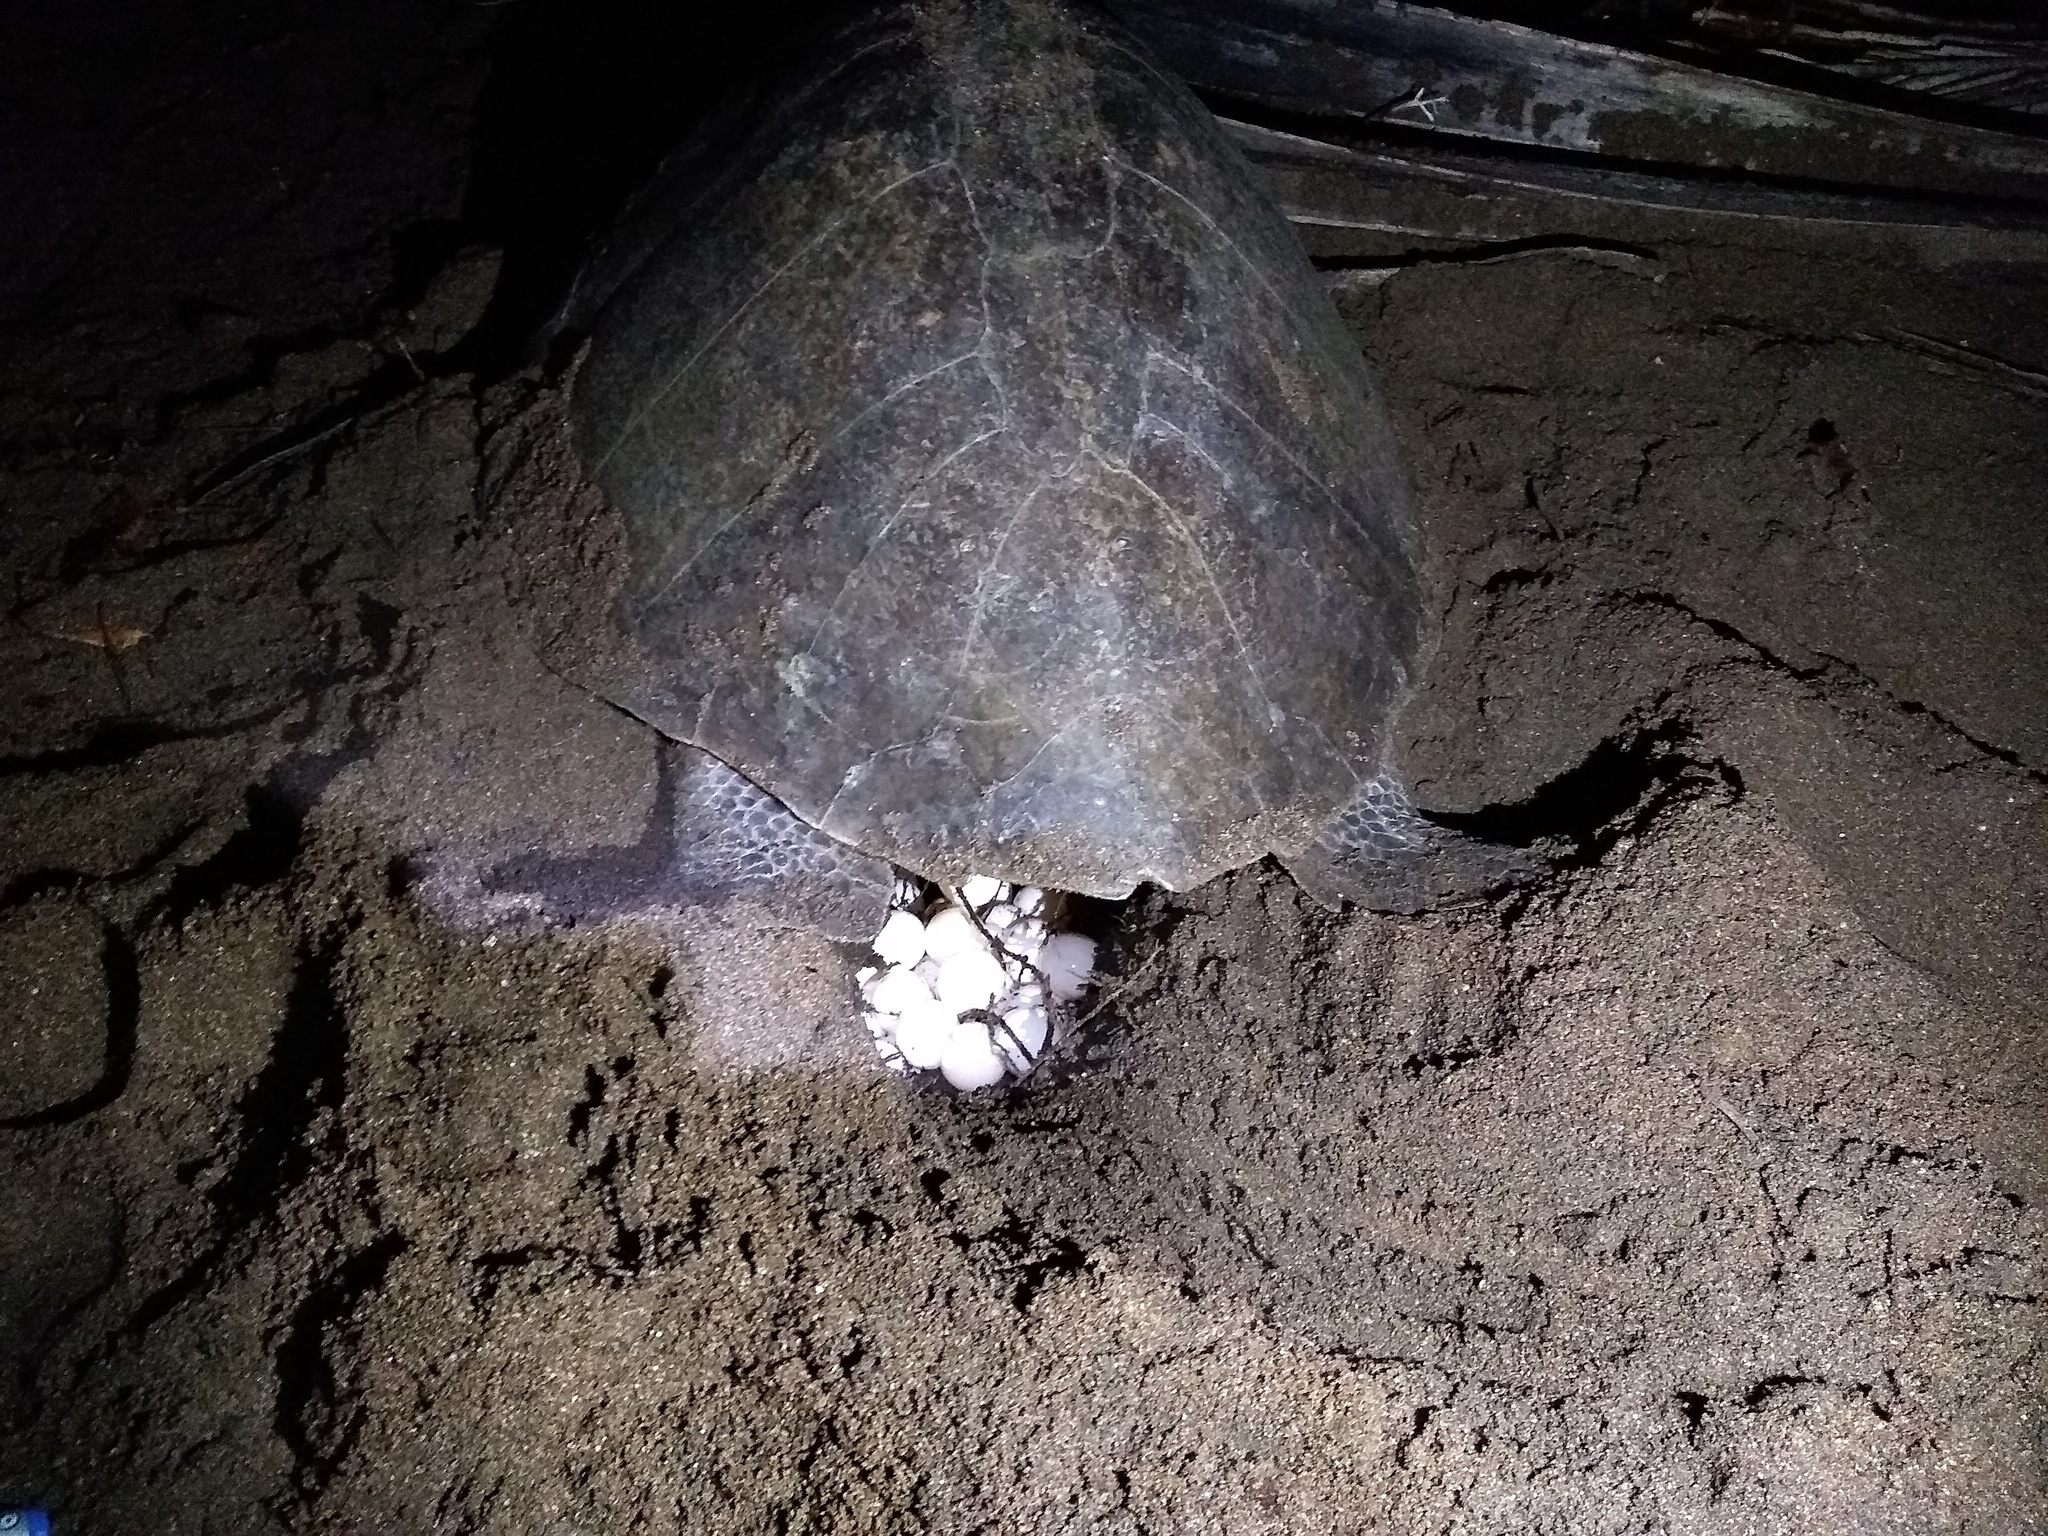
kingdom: Animalia
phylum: Chordata
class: Testudines
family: Cheloniidae
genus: Lepidochelys
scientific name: Lepidochelys olivacea
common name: Olive ridley
